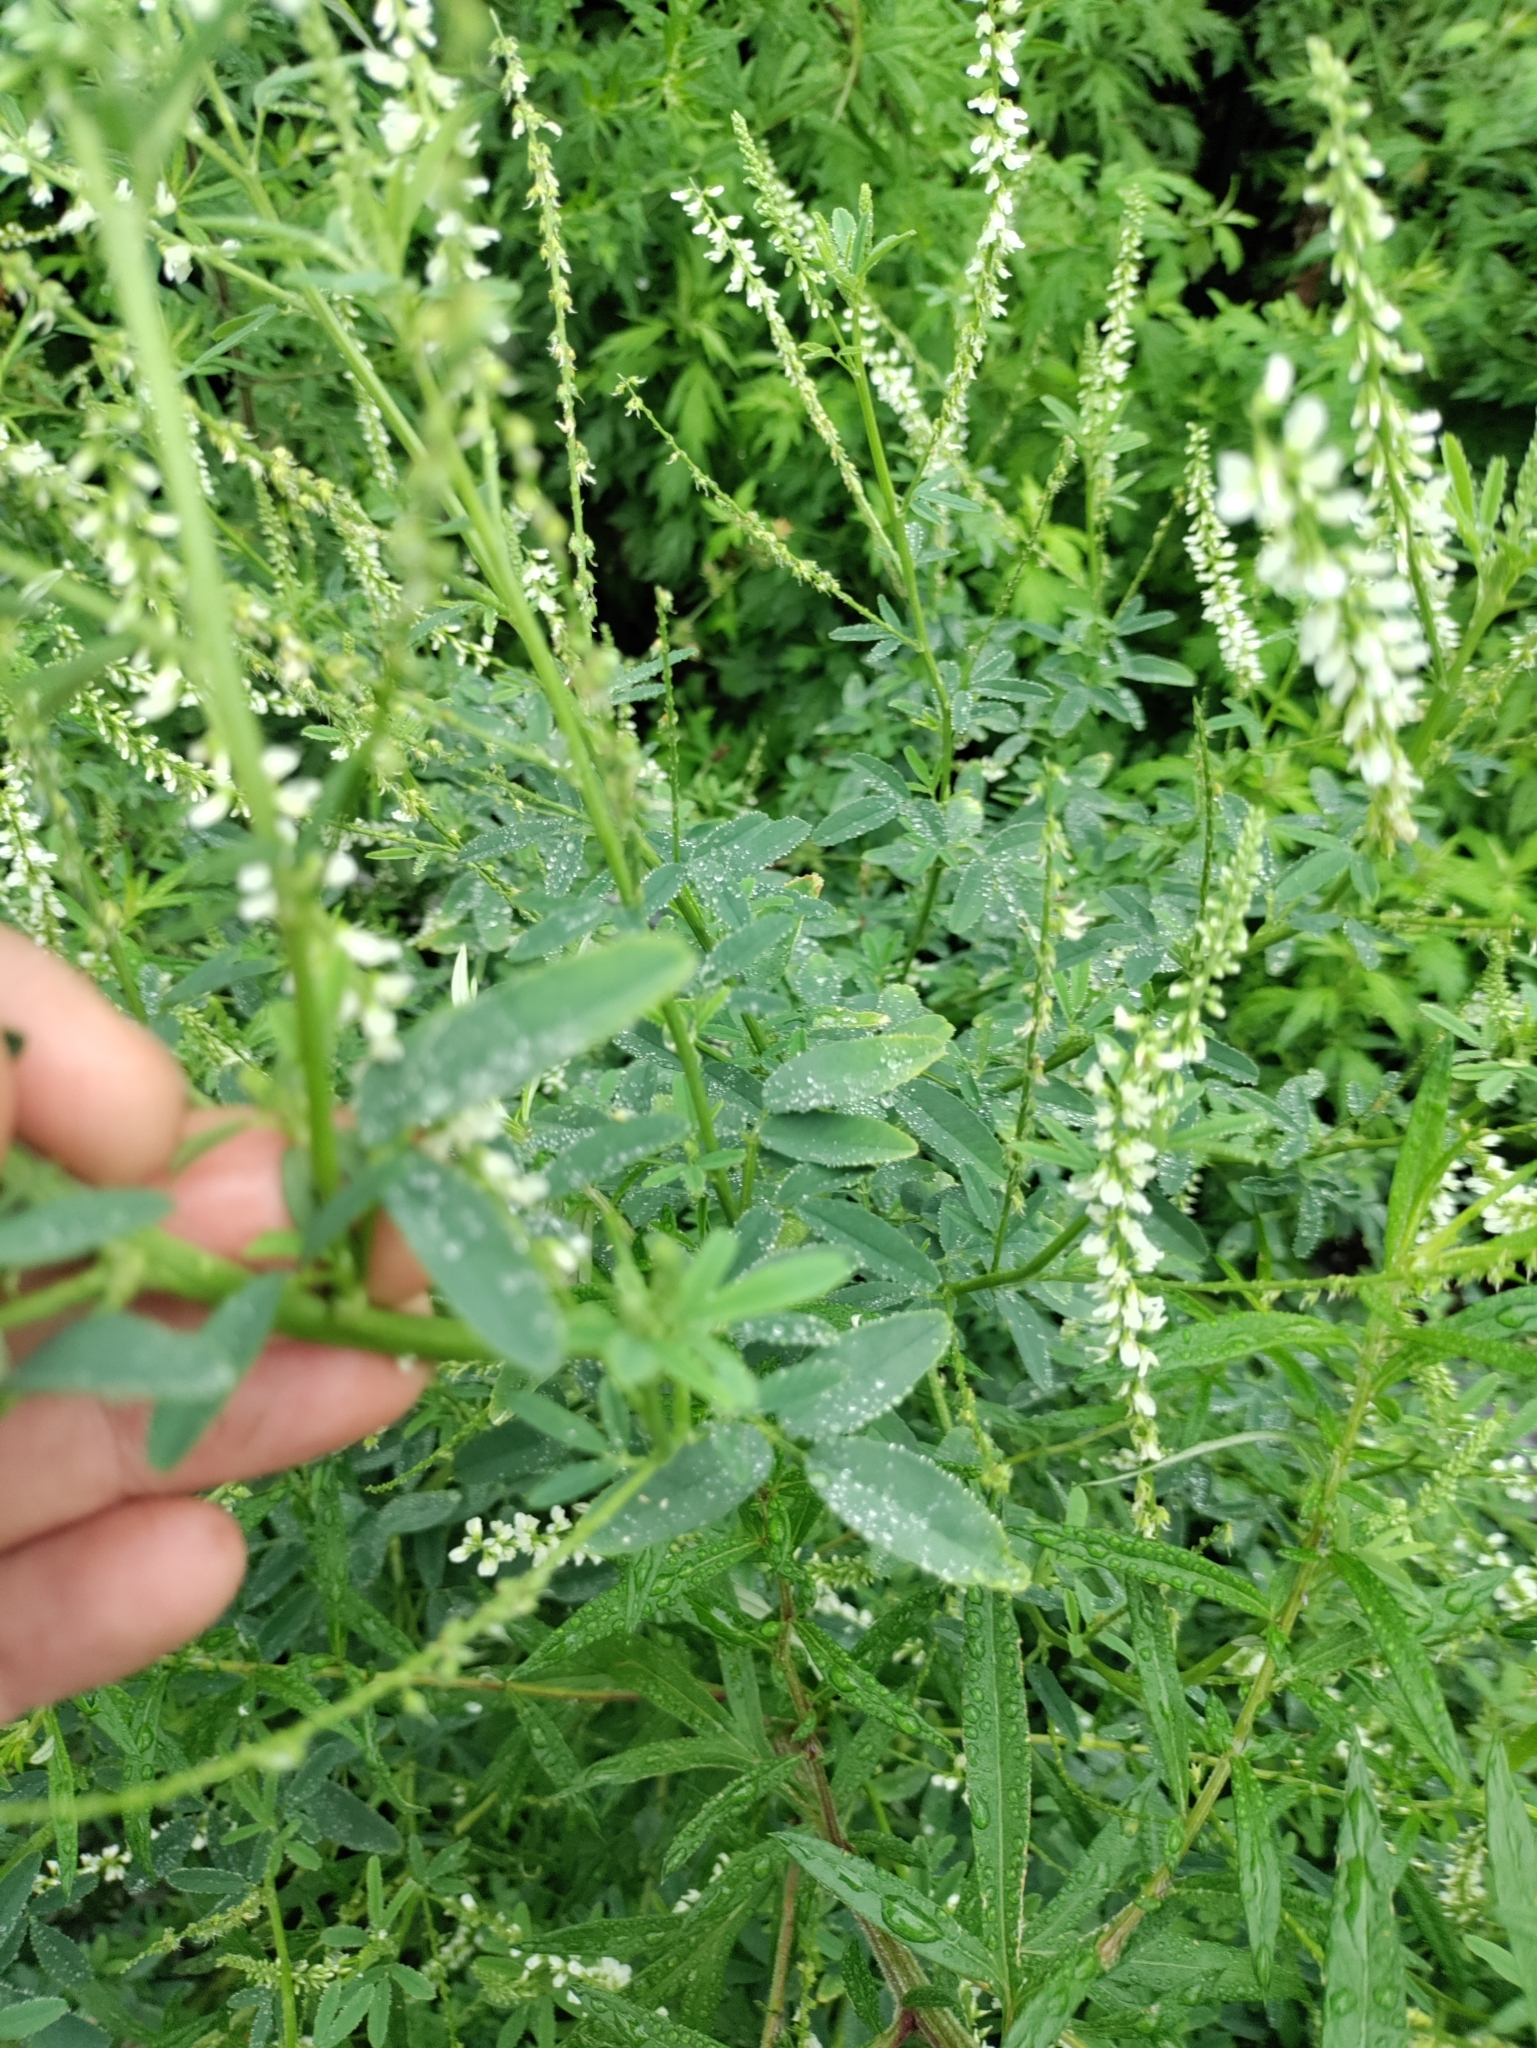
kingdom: Plantae
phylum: Tracheophyta
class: Magnoliopsida
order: Fabales
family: Fabaceae
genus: Melilotus
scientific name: Melilotus albus
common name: White melilot
